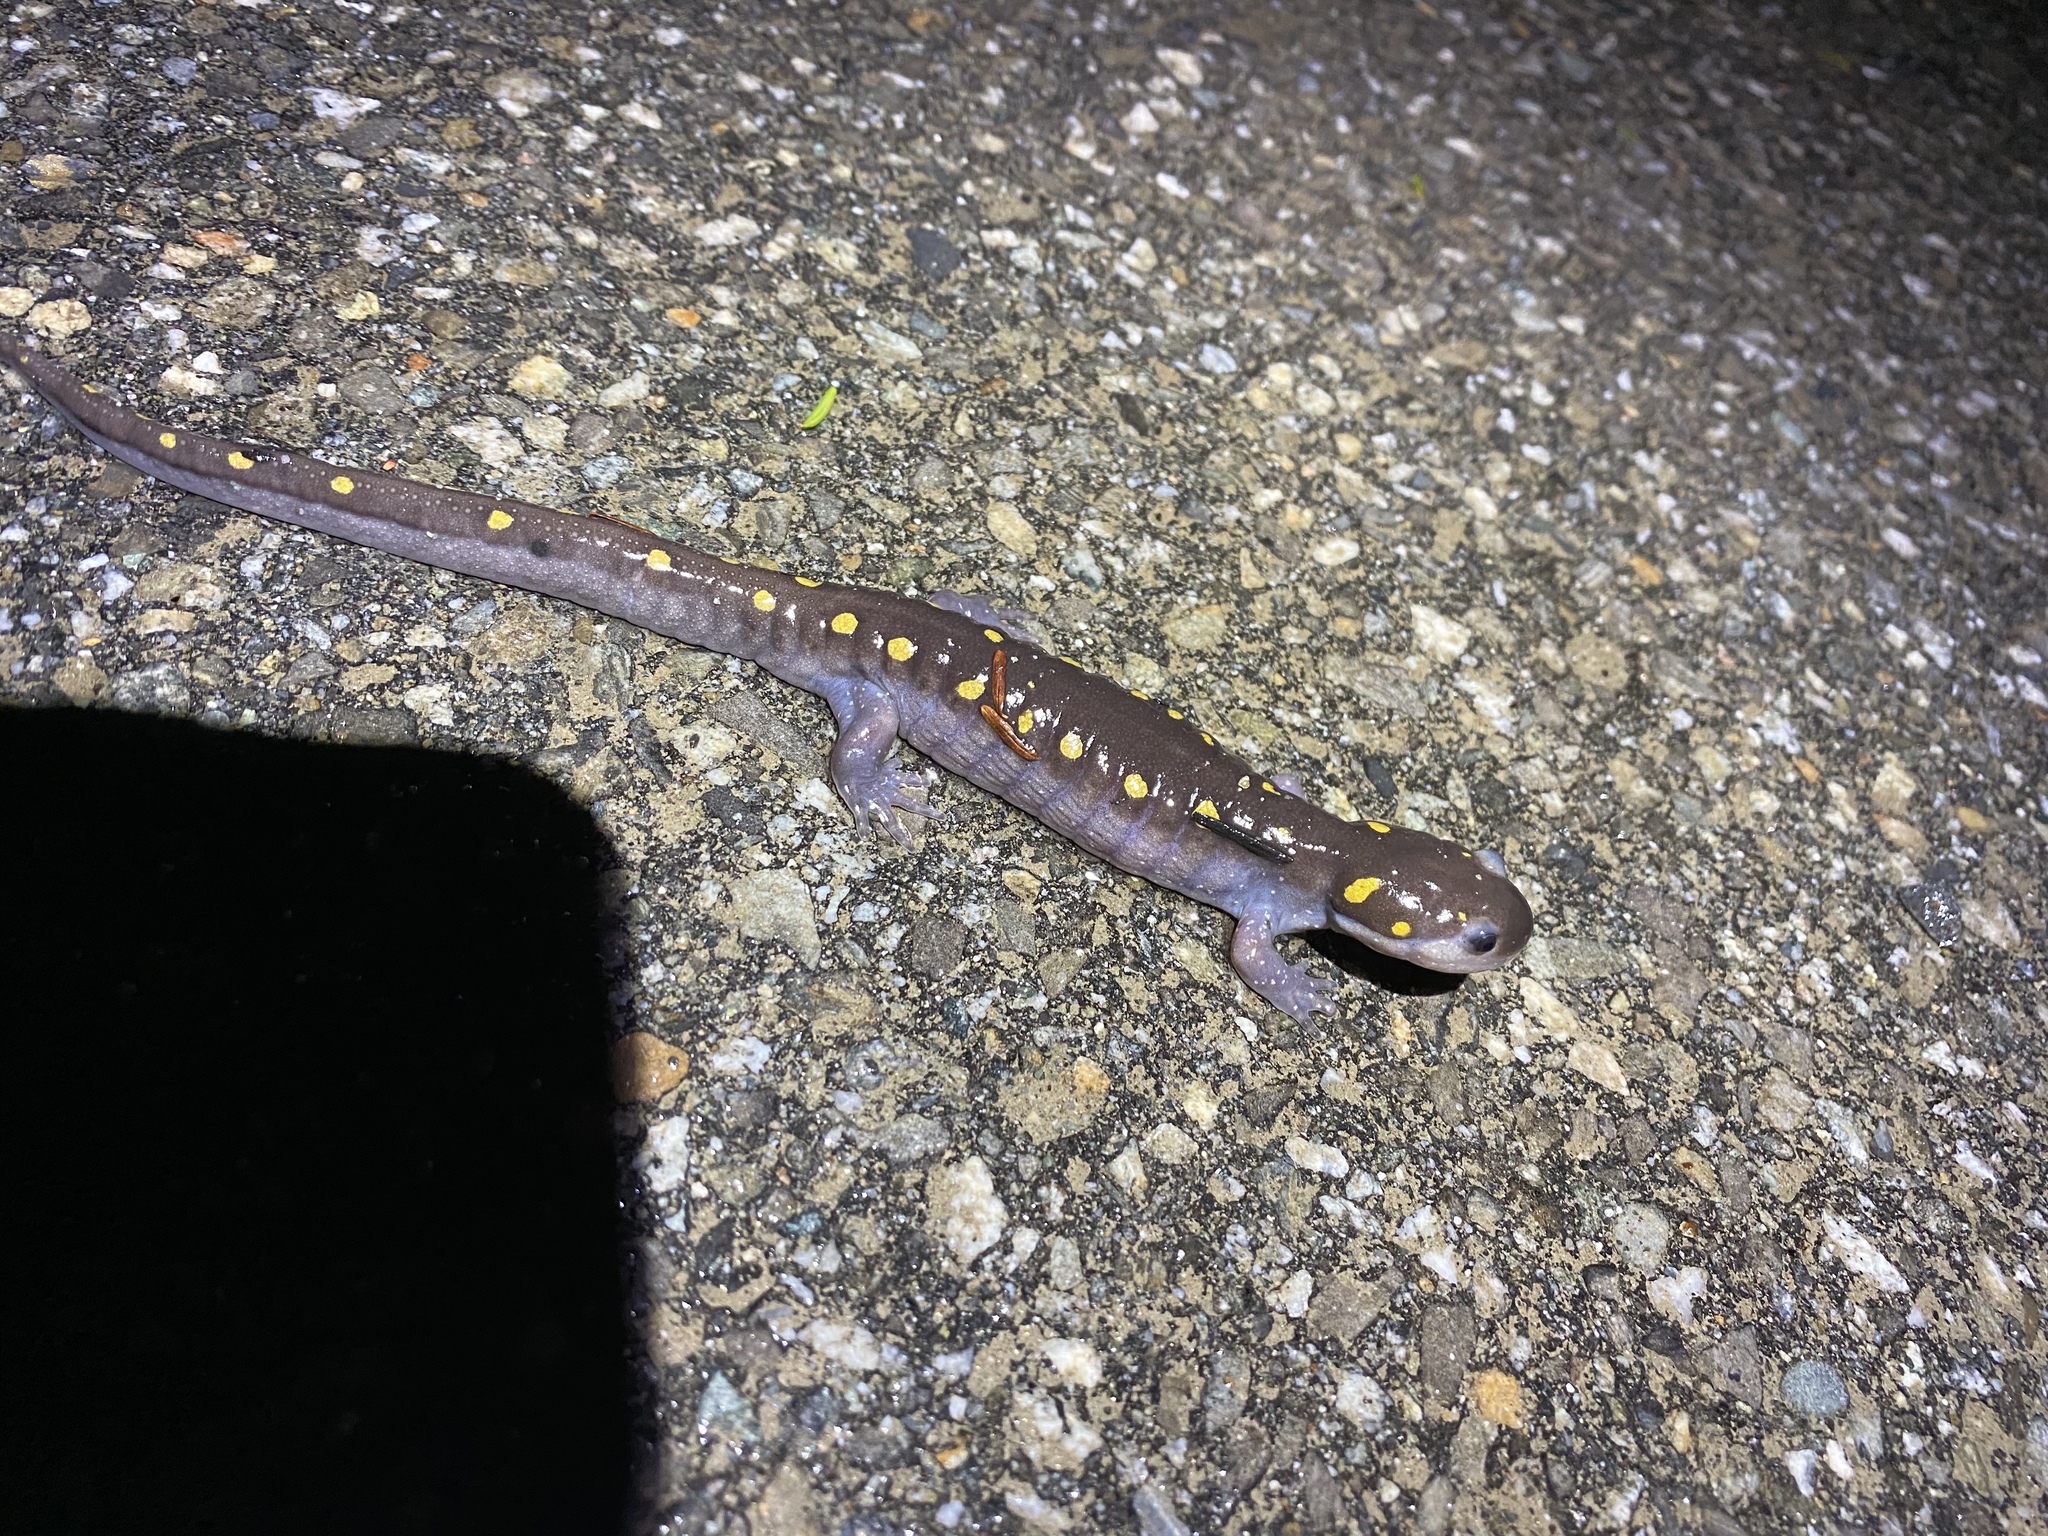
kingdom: Animalia
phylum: Chordata
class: Amphibia
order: Caudata
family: Ambystomatidae
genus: Ambystoma
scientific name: Ambystoma maculatum
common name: Spotted salamander
